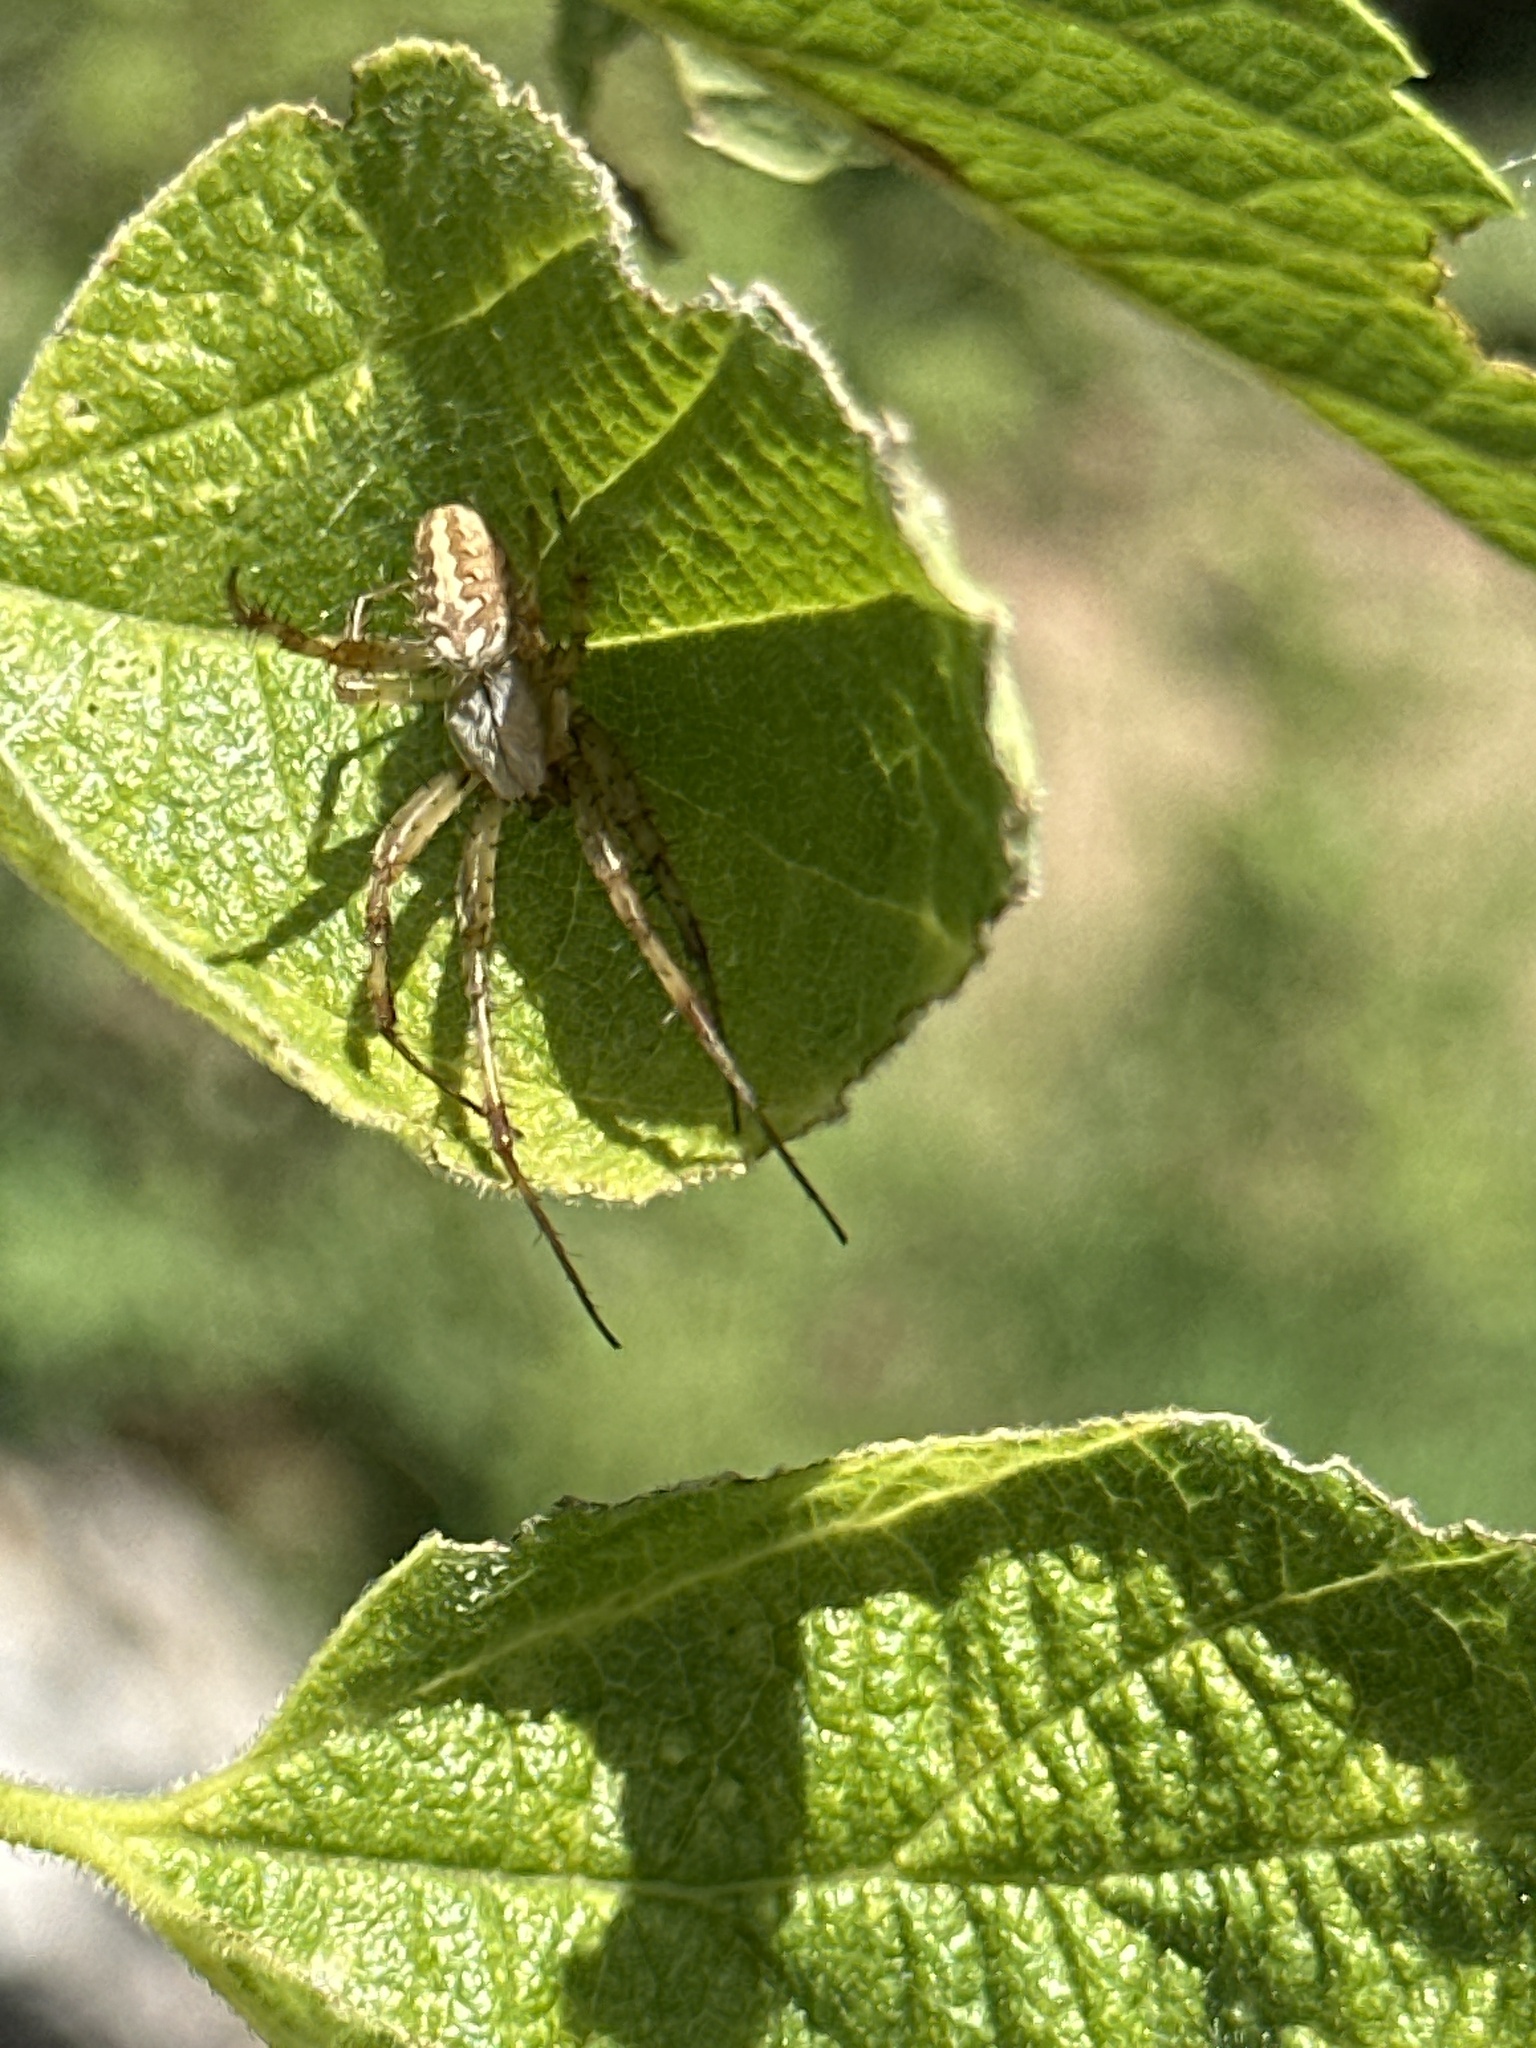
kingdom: Animalia
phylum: Arthropoda
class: Arachnida
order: Araneae
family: Araneidae
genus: Neoscona
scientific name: Neoscona oaxacensis
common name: Orb weavers
